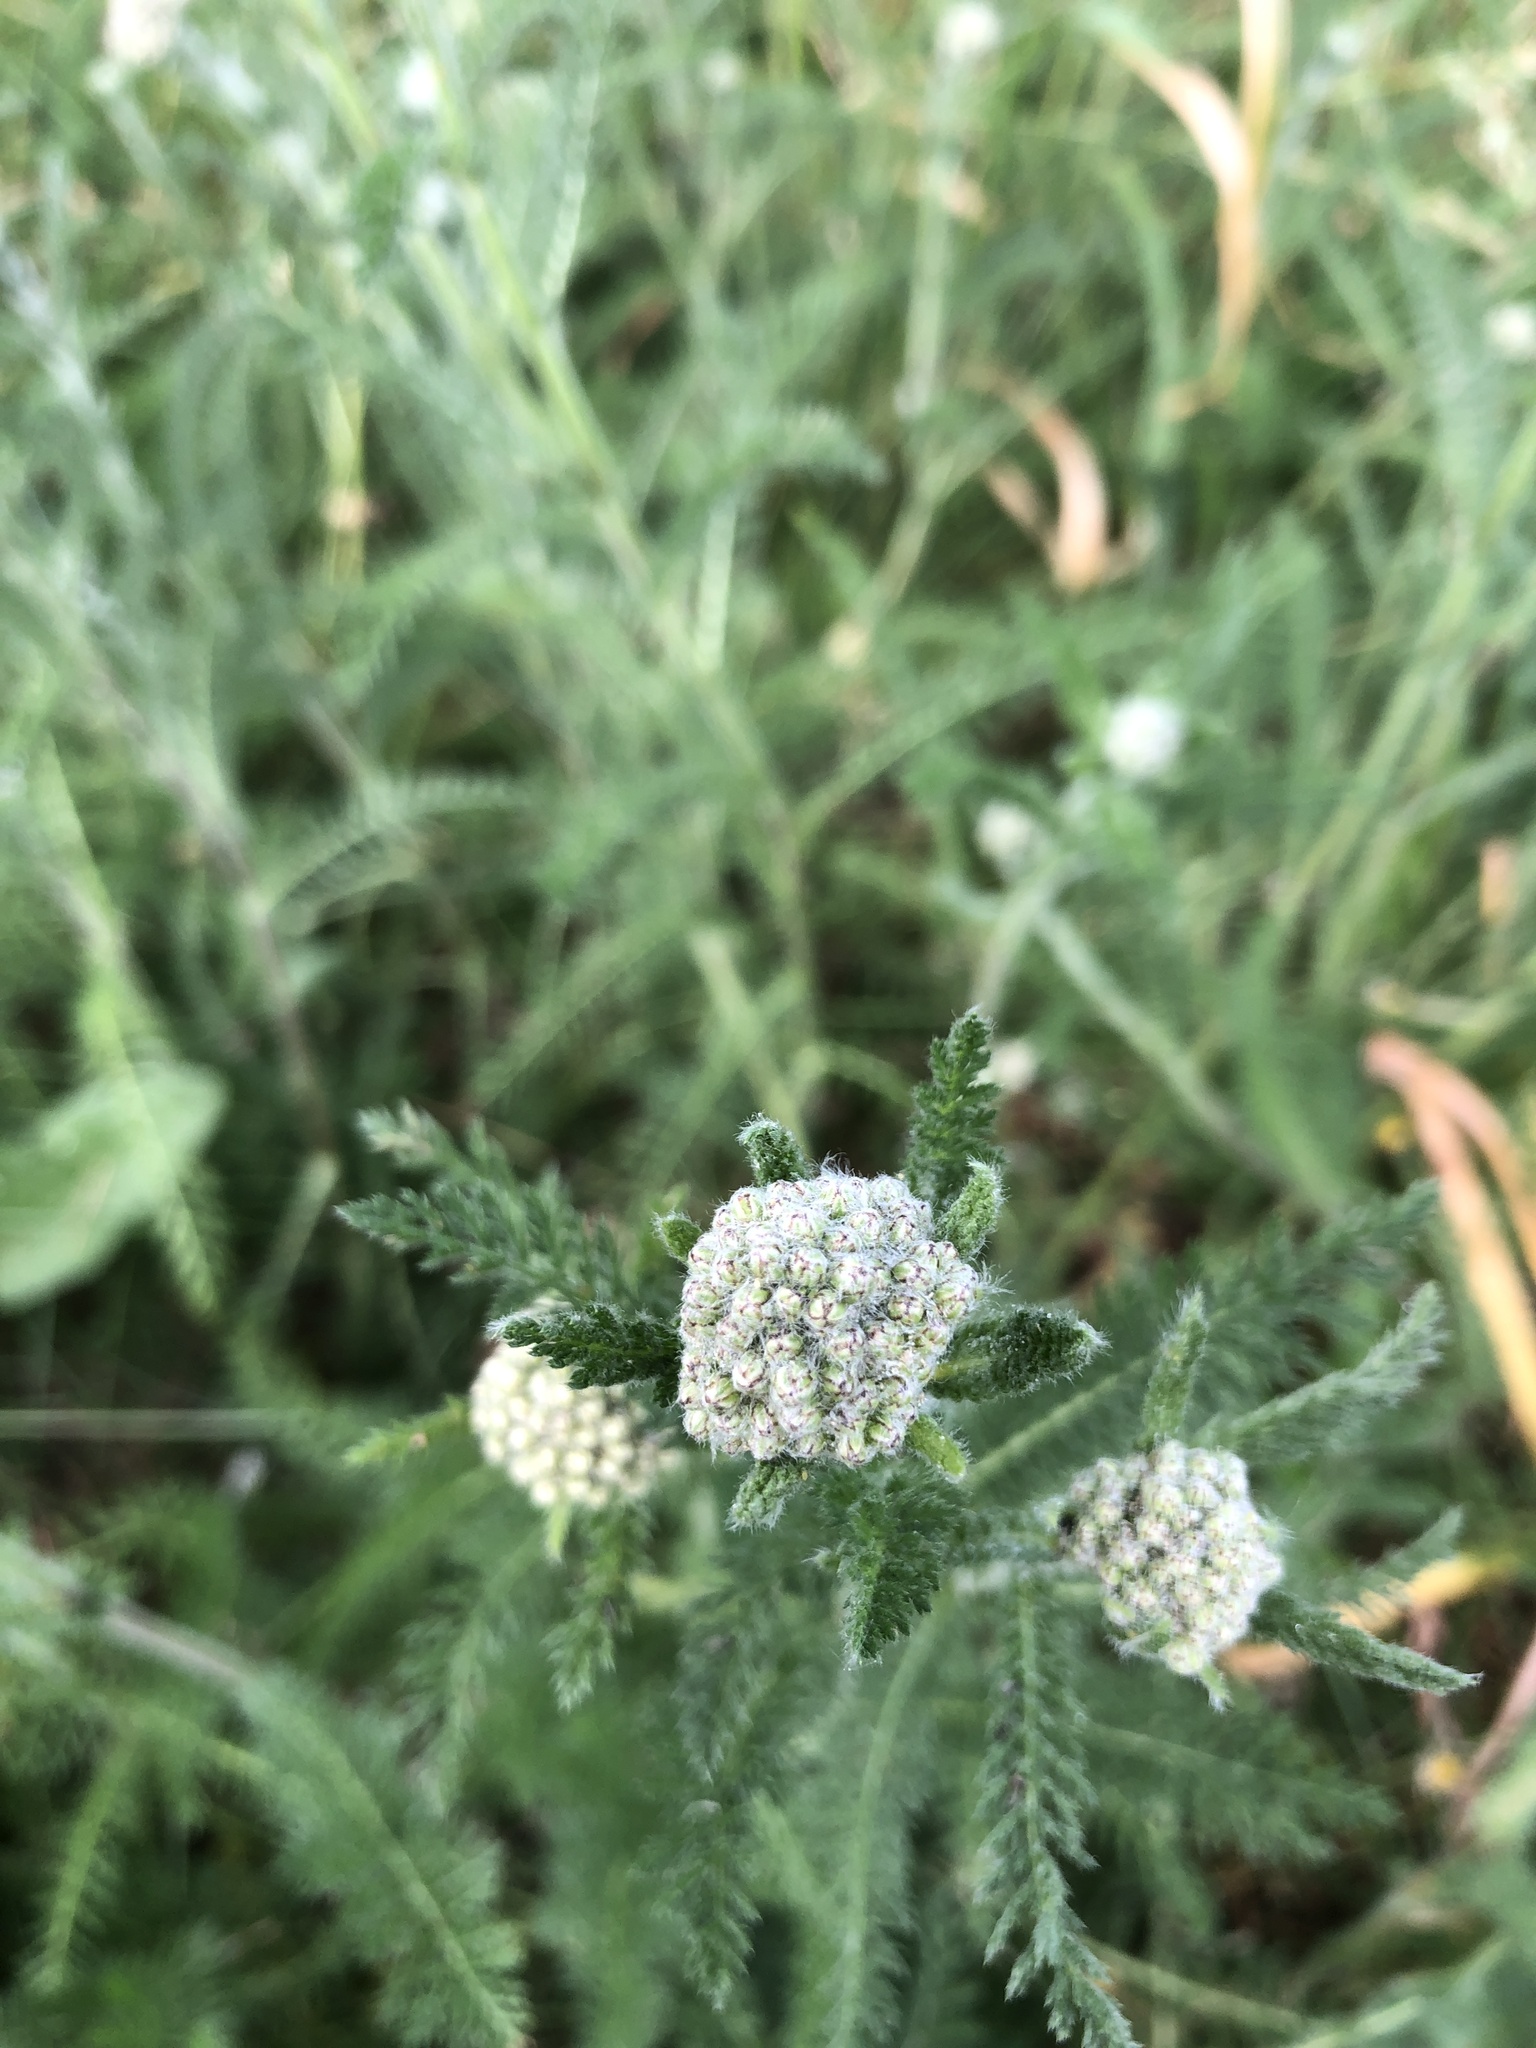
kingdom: Plantae
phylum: Tracheophyta
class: Magnoliopsida
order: Asterales
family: Asteraceae
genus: Achillea
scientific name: Achillea millefolium
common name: Yarrow
